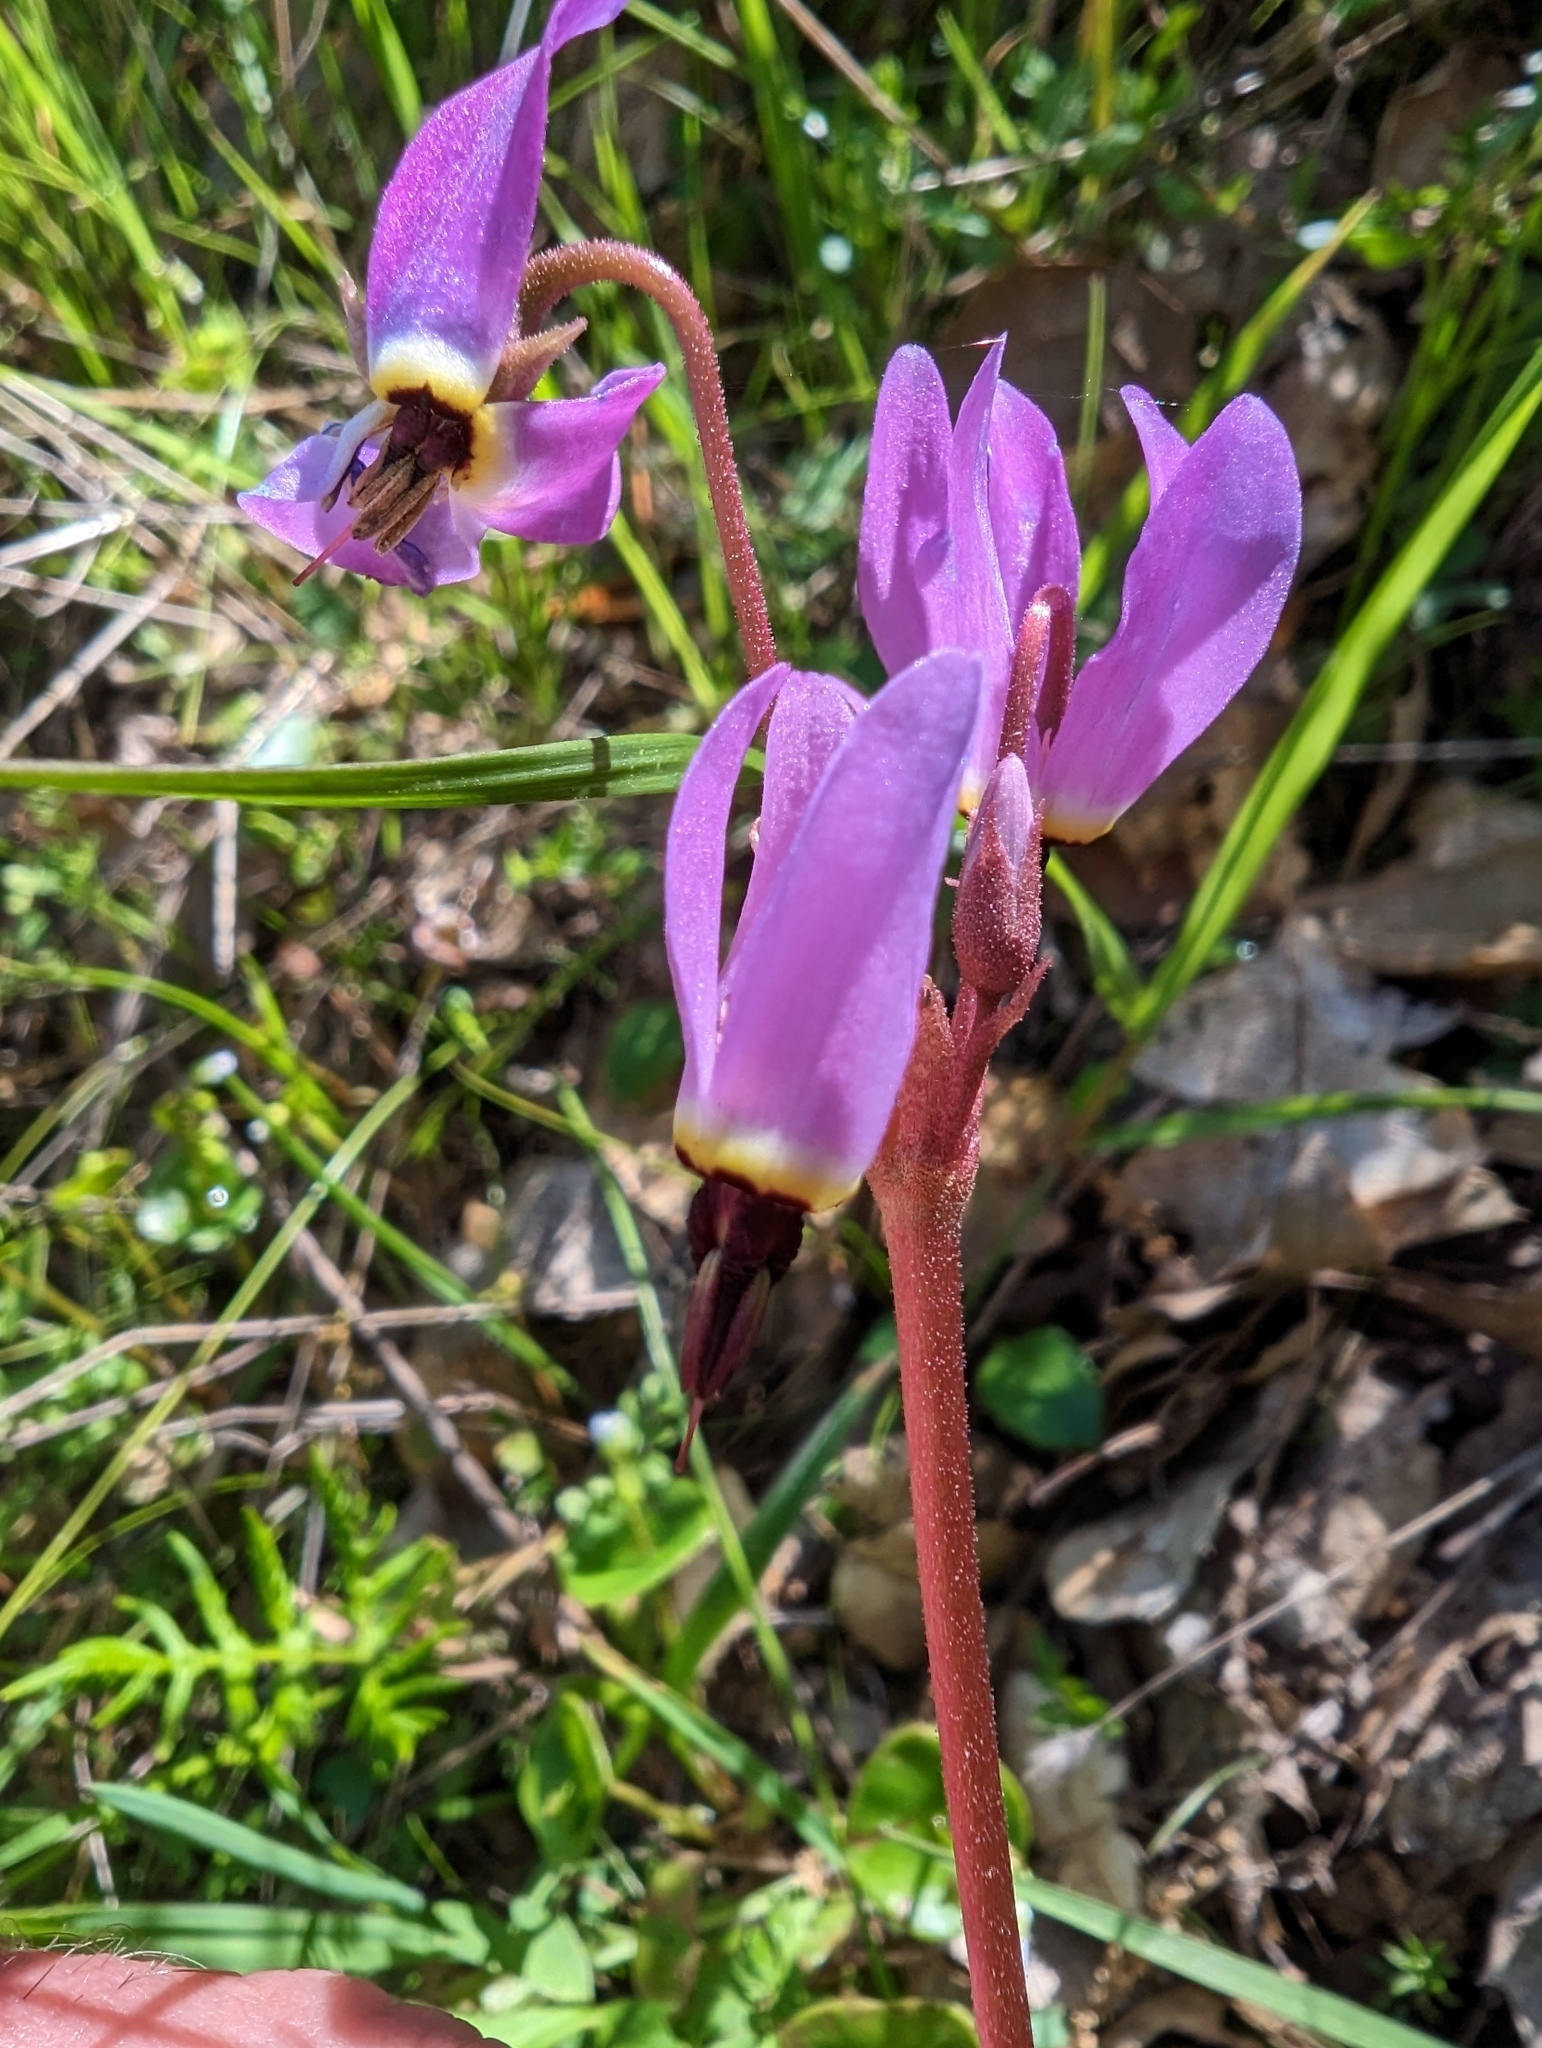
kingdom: Plantae
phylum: Tracheophyta
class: Magnoliopsida
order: Ericales
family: Primulaceae
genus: Dodecatheon
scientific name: Dodecatheon hendersonii
